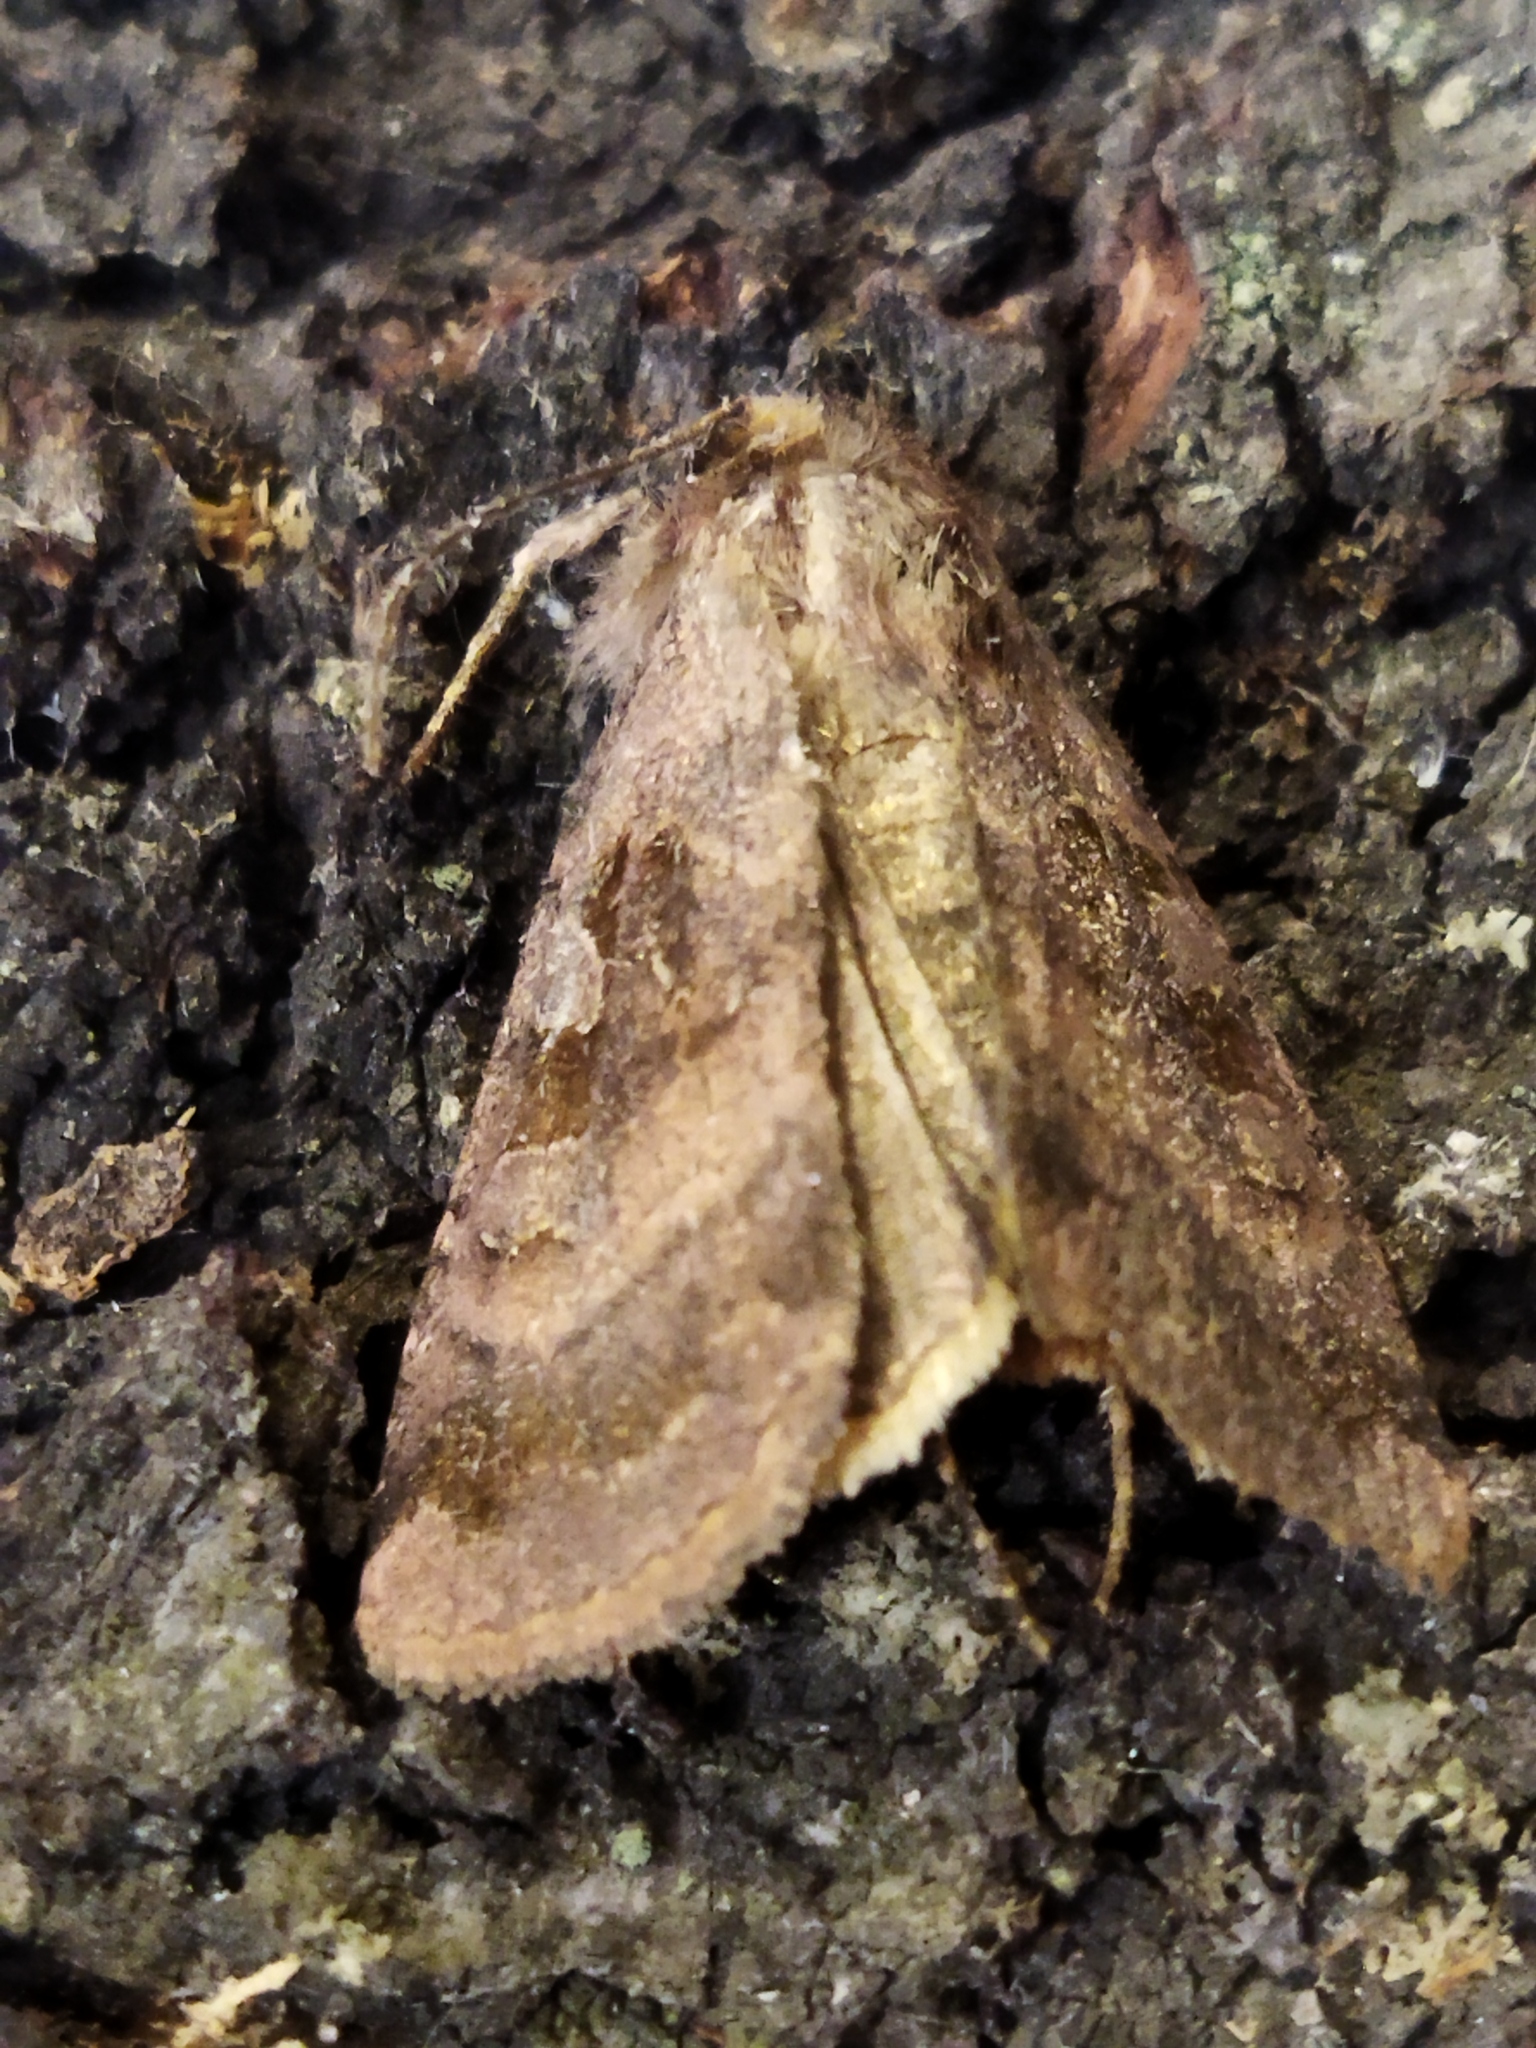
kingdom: Animalia
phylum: Arthropoda
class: Insecta
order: Lepidoptera
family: Noctuidae
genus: Xestia
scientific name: Xestia stigmatica
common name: Square-spotted clay
